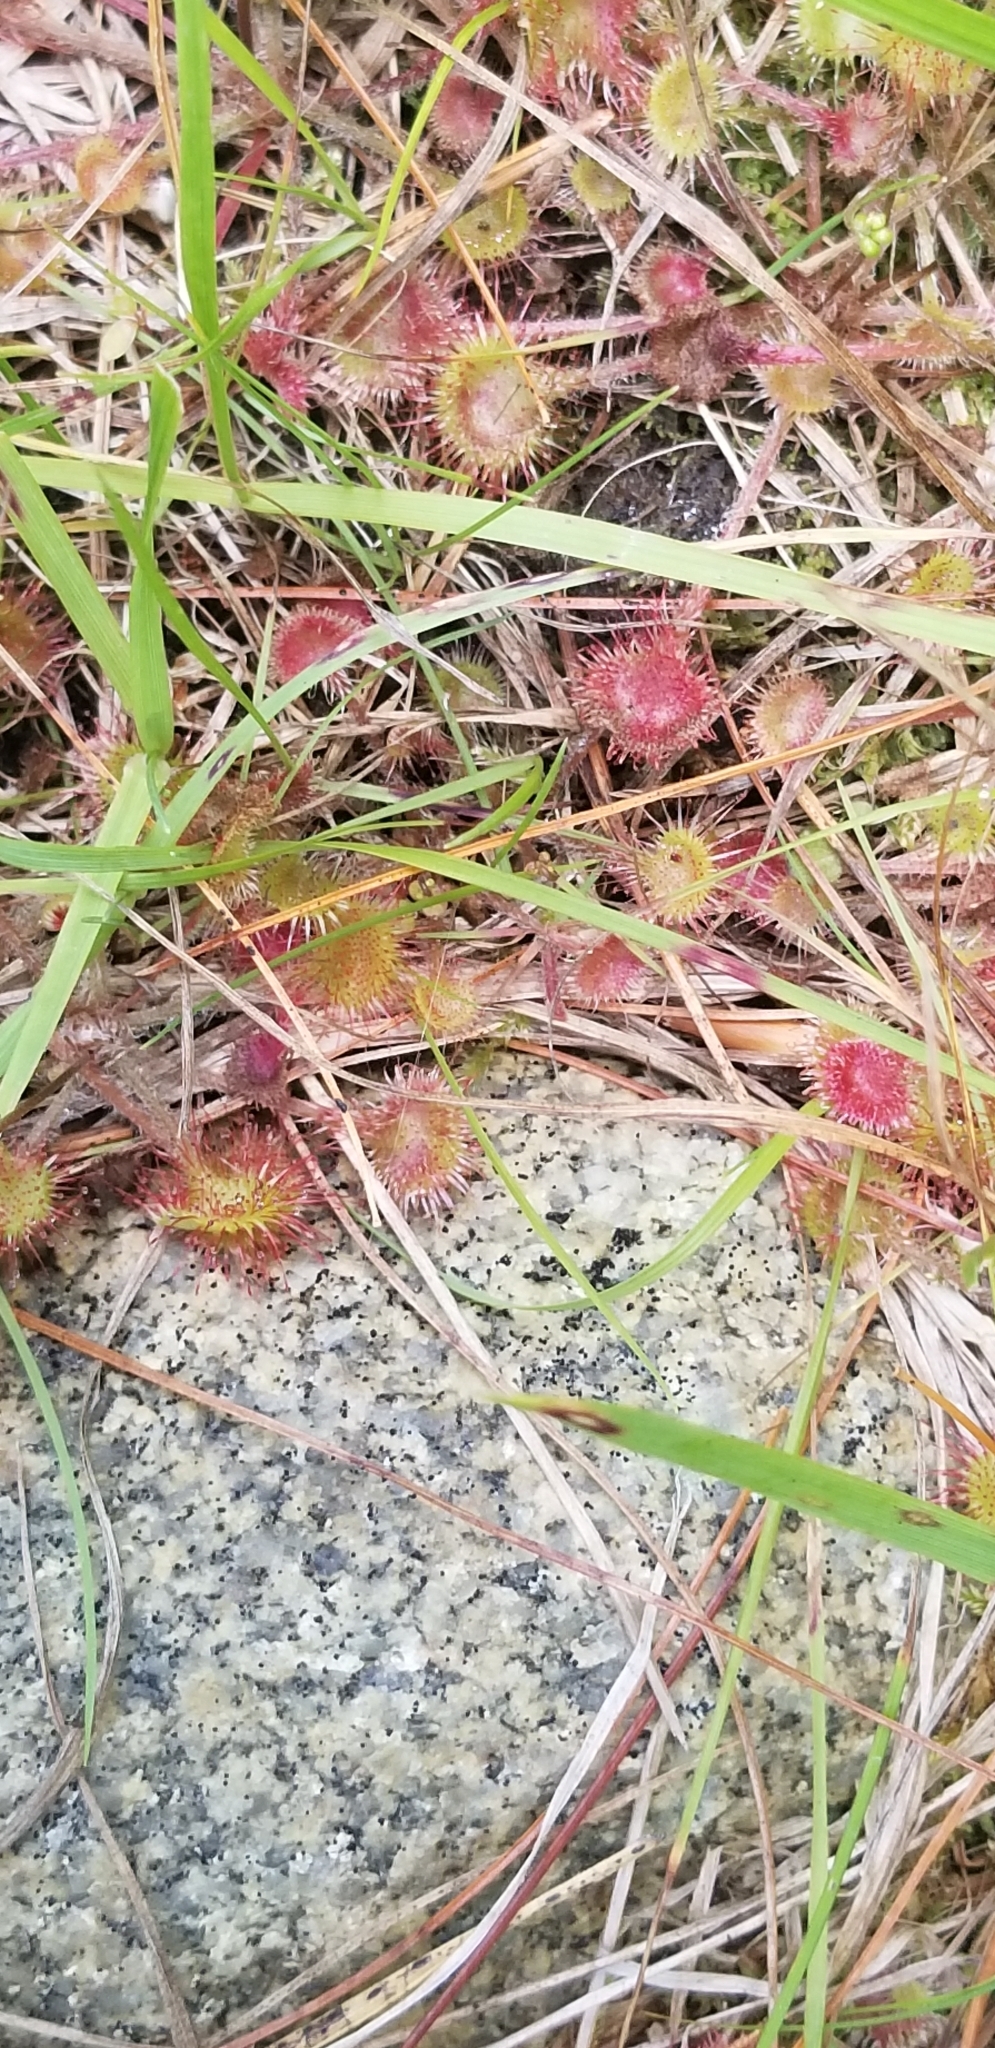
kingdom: Plantae
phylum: Tracheophyta
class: Magnoliopsida
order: Caryophyllales
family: Droseraceae
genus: Drosera
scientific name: Drosera rotundifolia
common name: Round-leaved sundew
